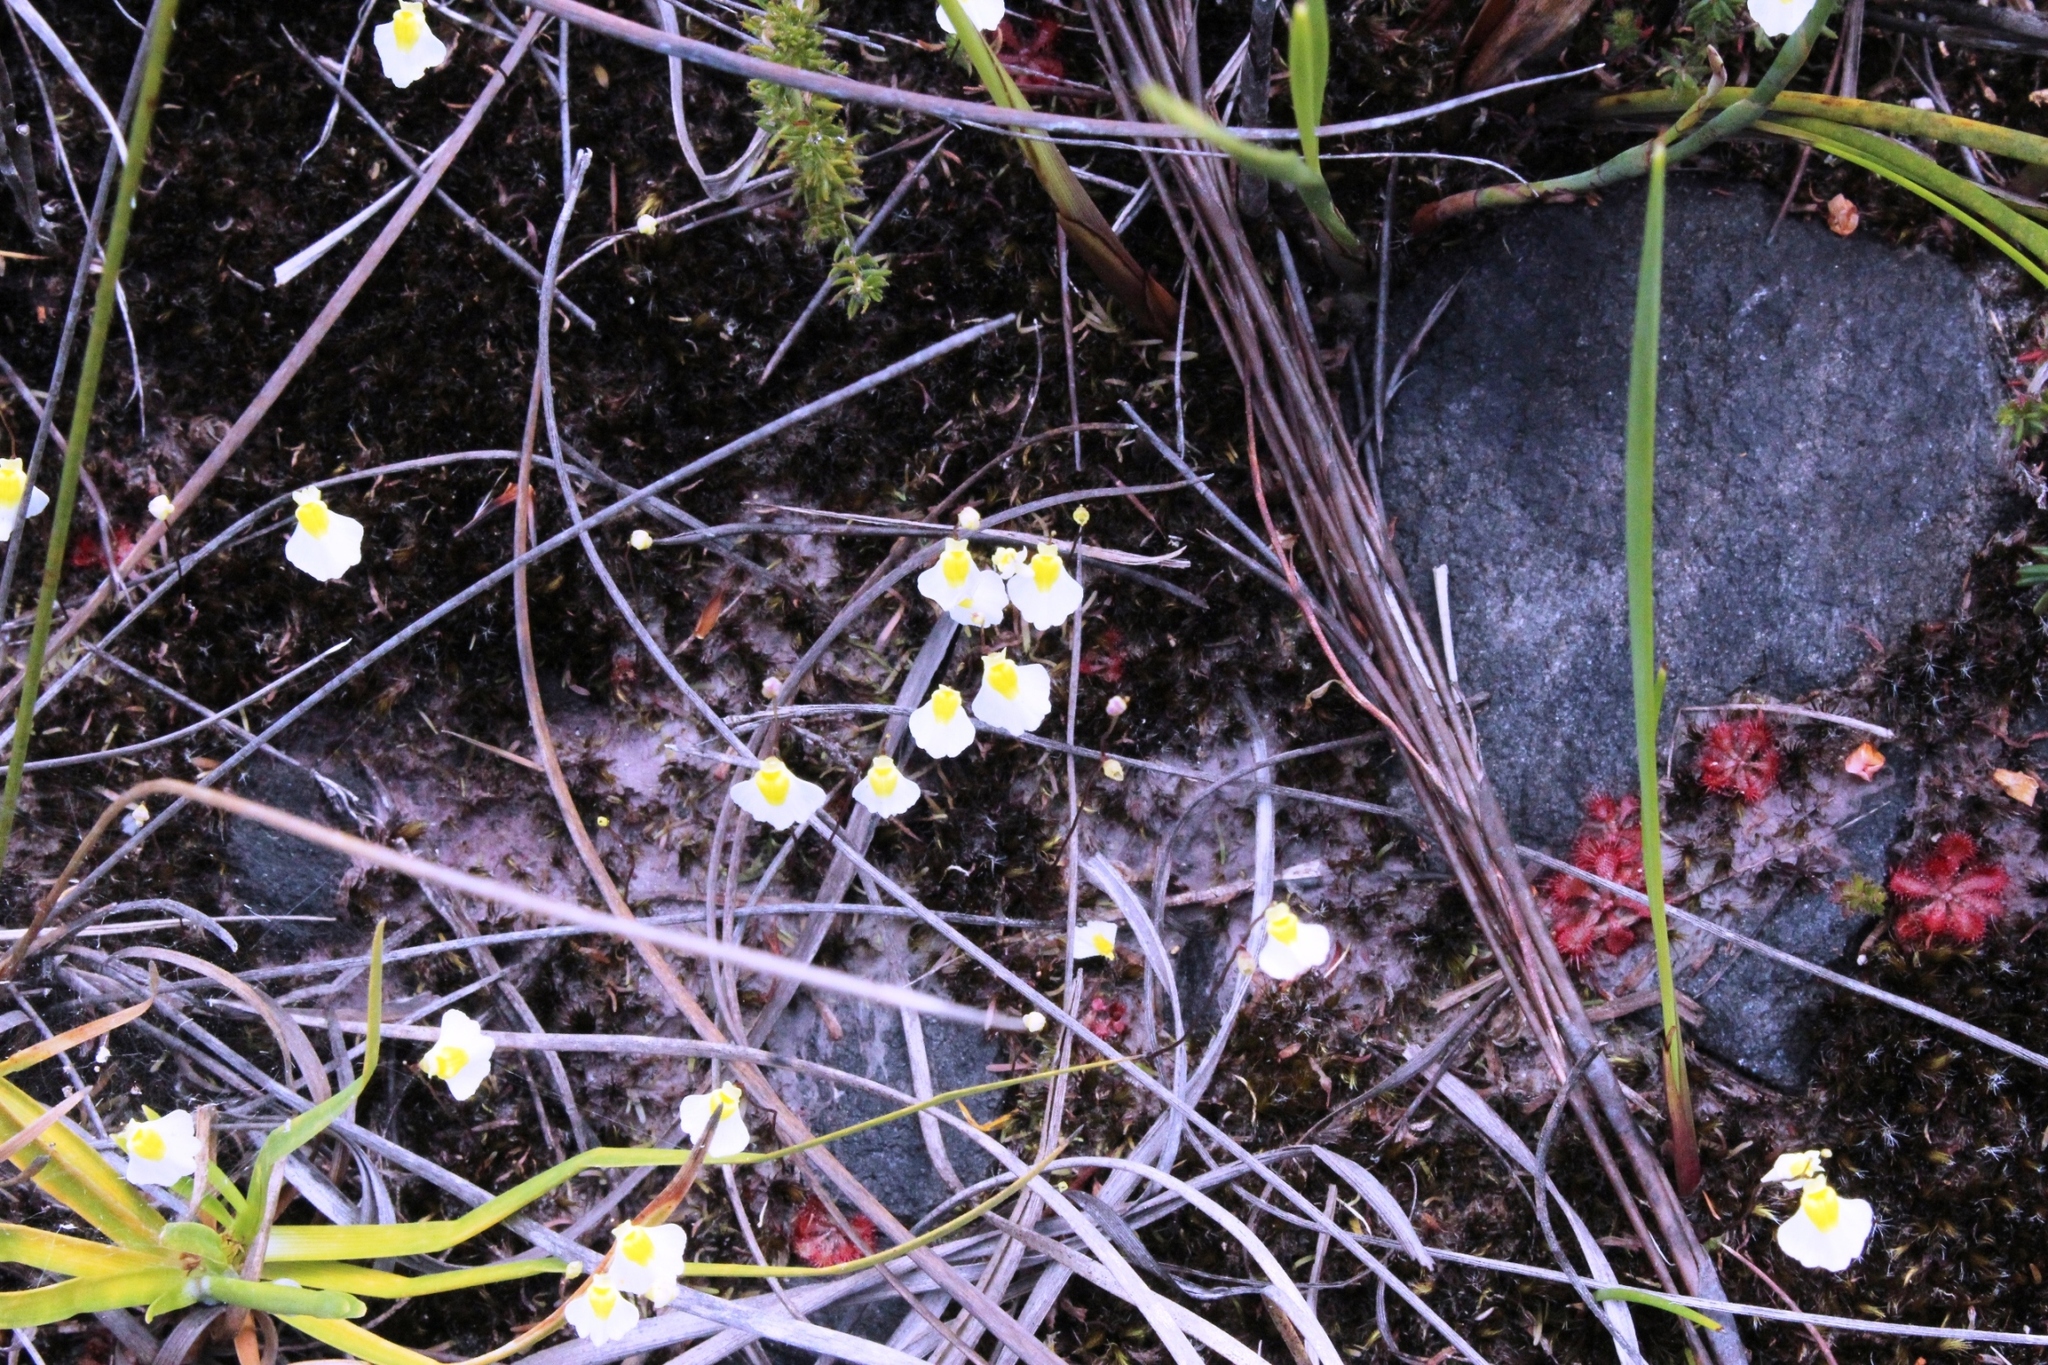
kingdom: Plantae
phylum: Tracheophyta
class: Magnoliopsida
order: Lamiales
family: Lentibulariaceae
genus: Utricularia
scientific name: Utricularia bisquamata
